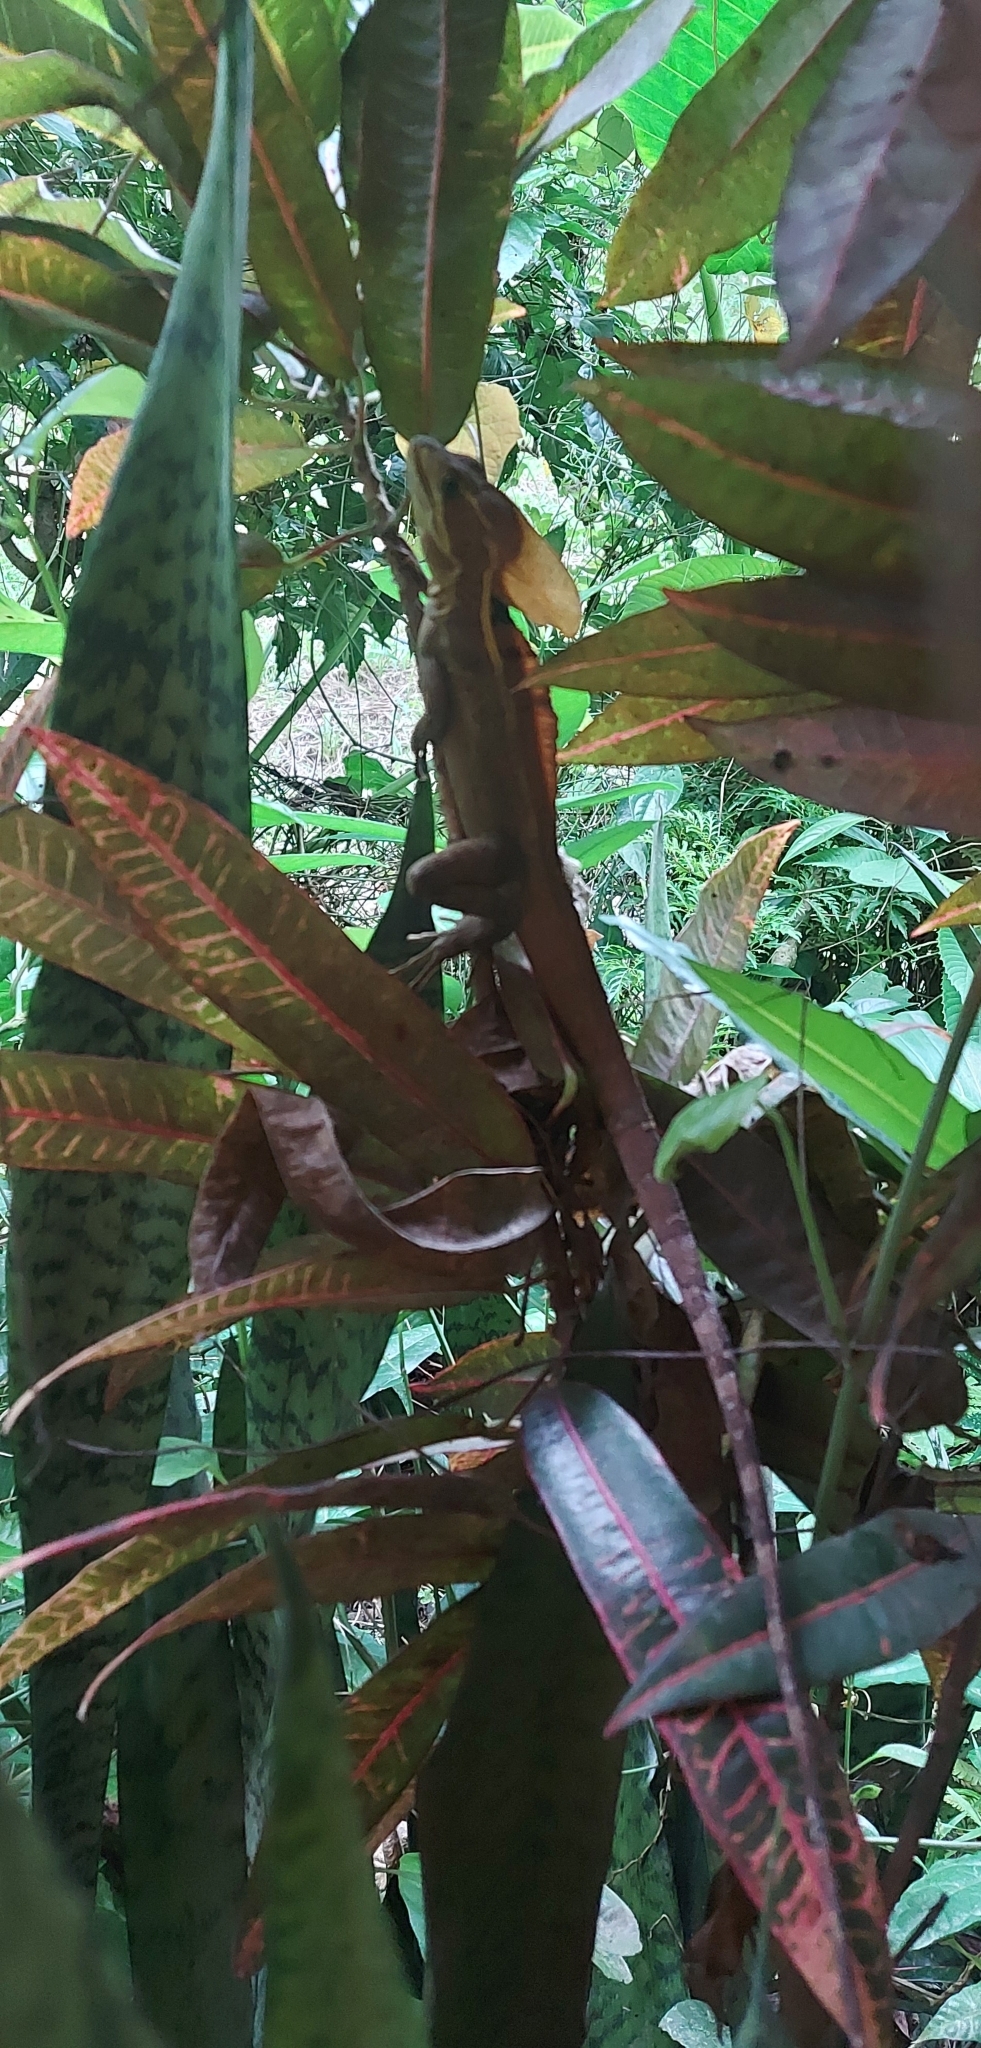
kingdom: Animalia
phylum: Chordata
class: Squamata
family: Corytophanidae
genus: Basiliscus
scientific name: Basiliscus vittatus
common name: Brown basilisk
